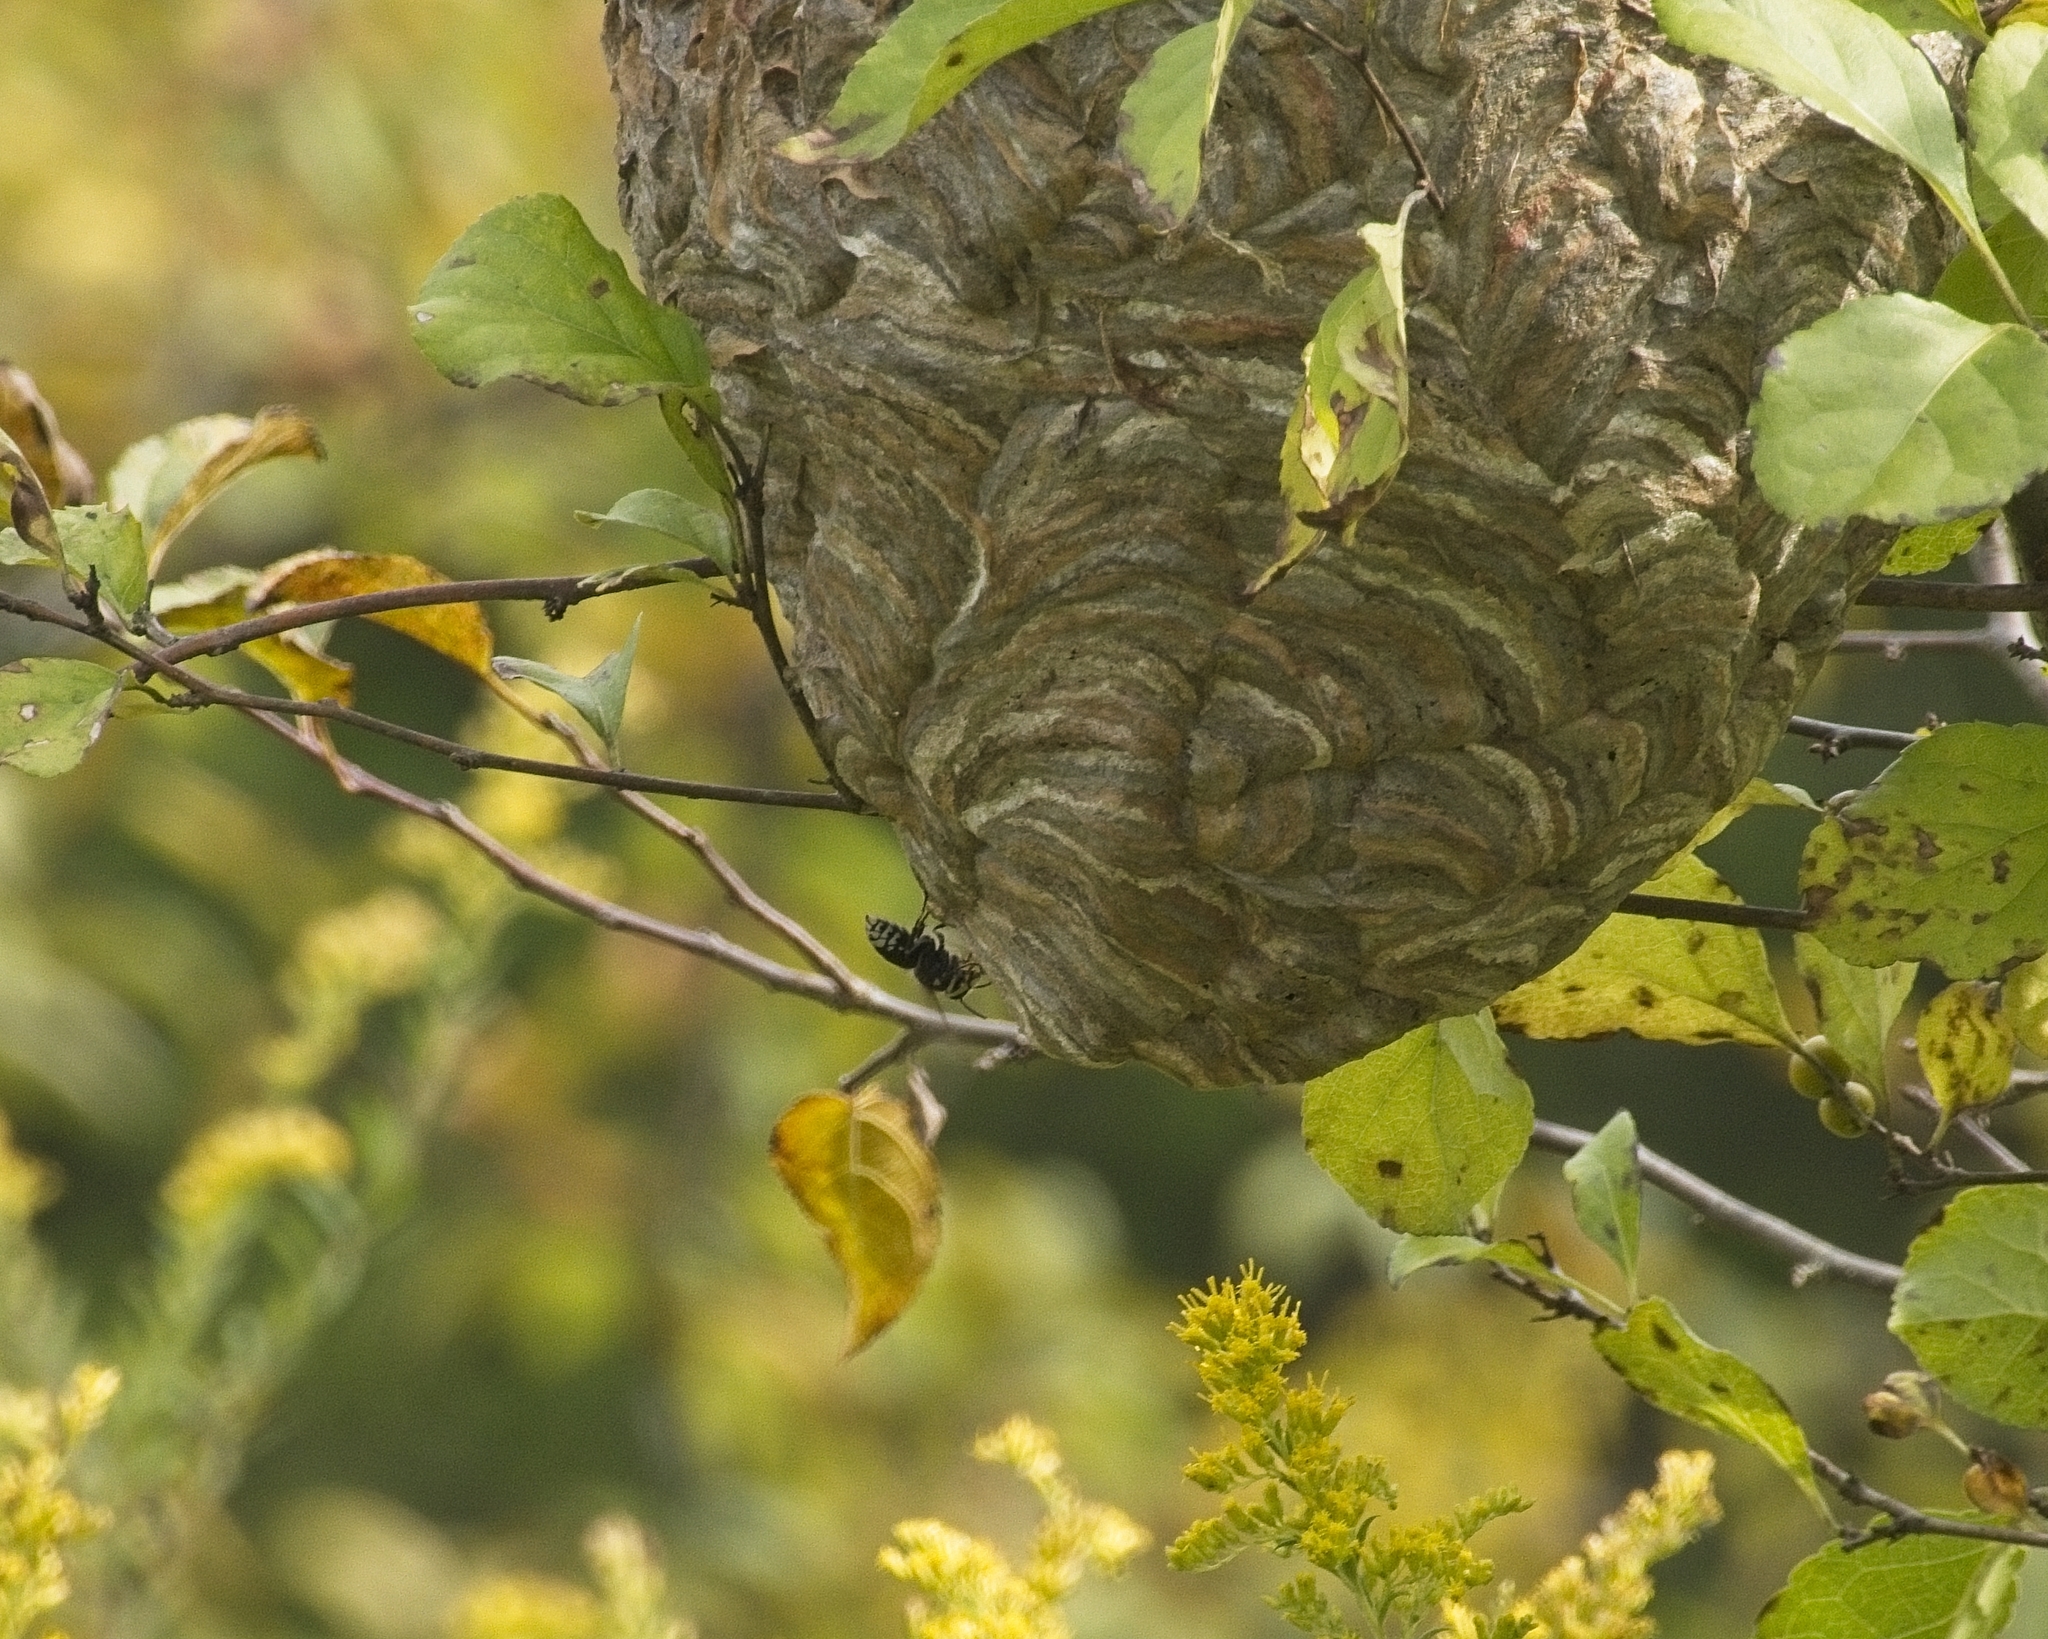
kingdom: Animalia
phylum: Arthropoda
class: Insecta
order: Hymenoptera
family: Vespidae
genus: Dolichovespula
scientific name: Dolichovespula maculata
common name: Bald-faced hornet
